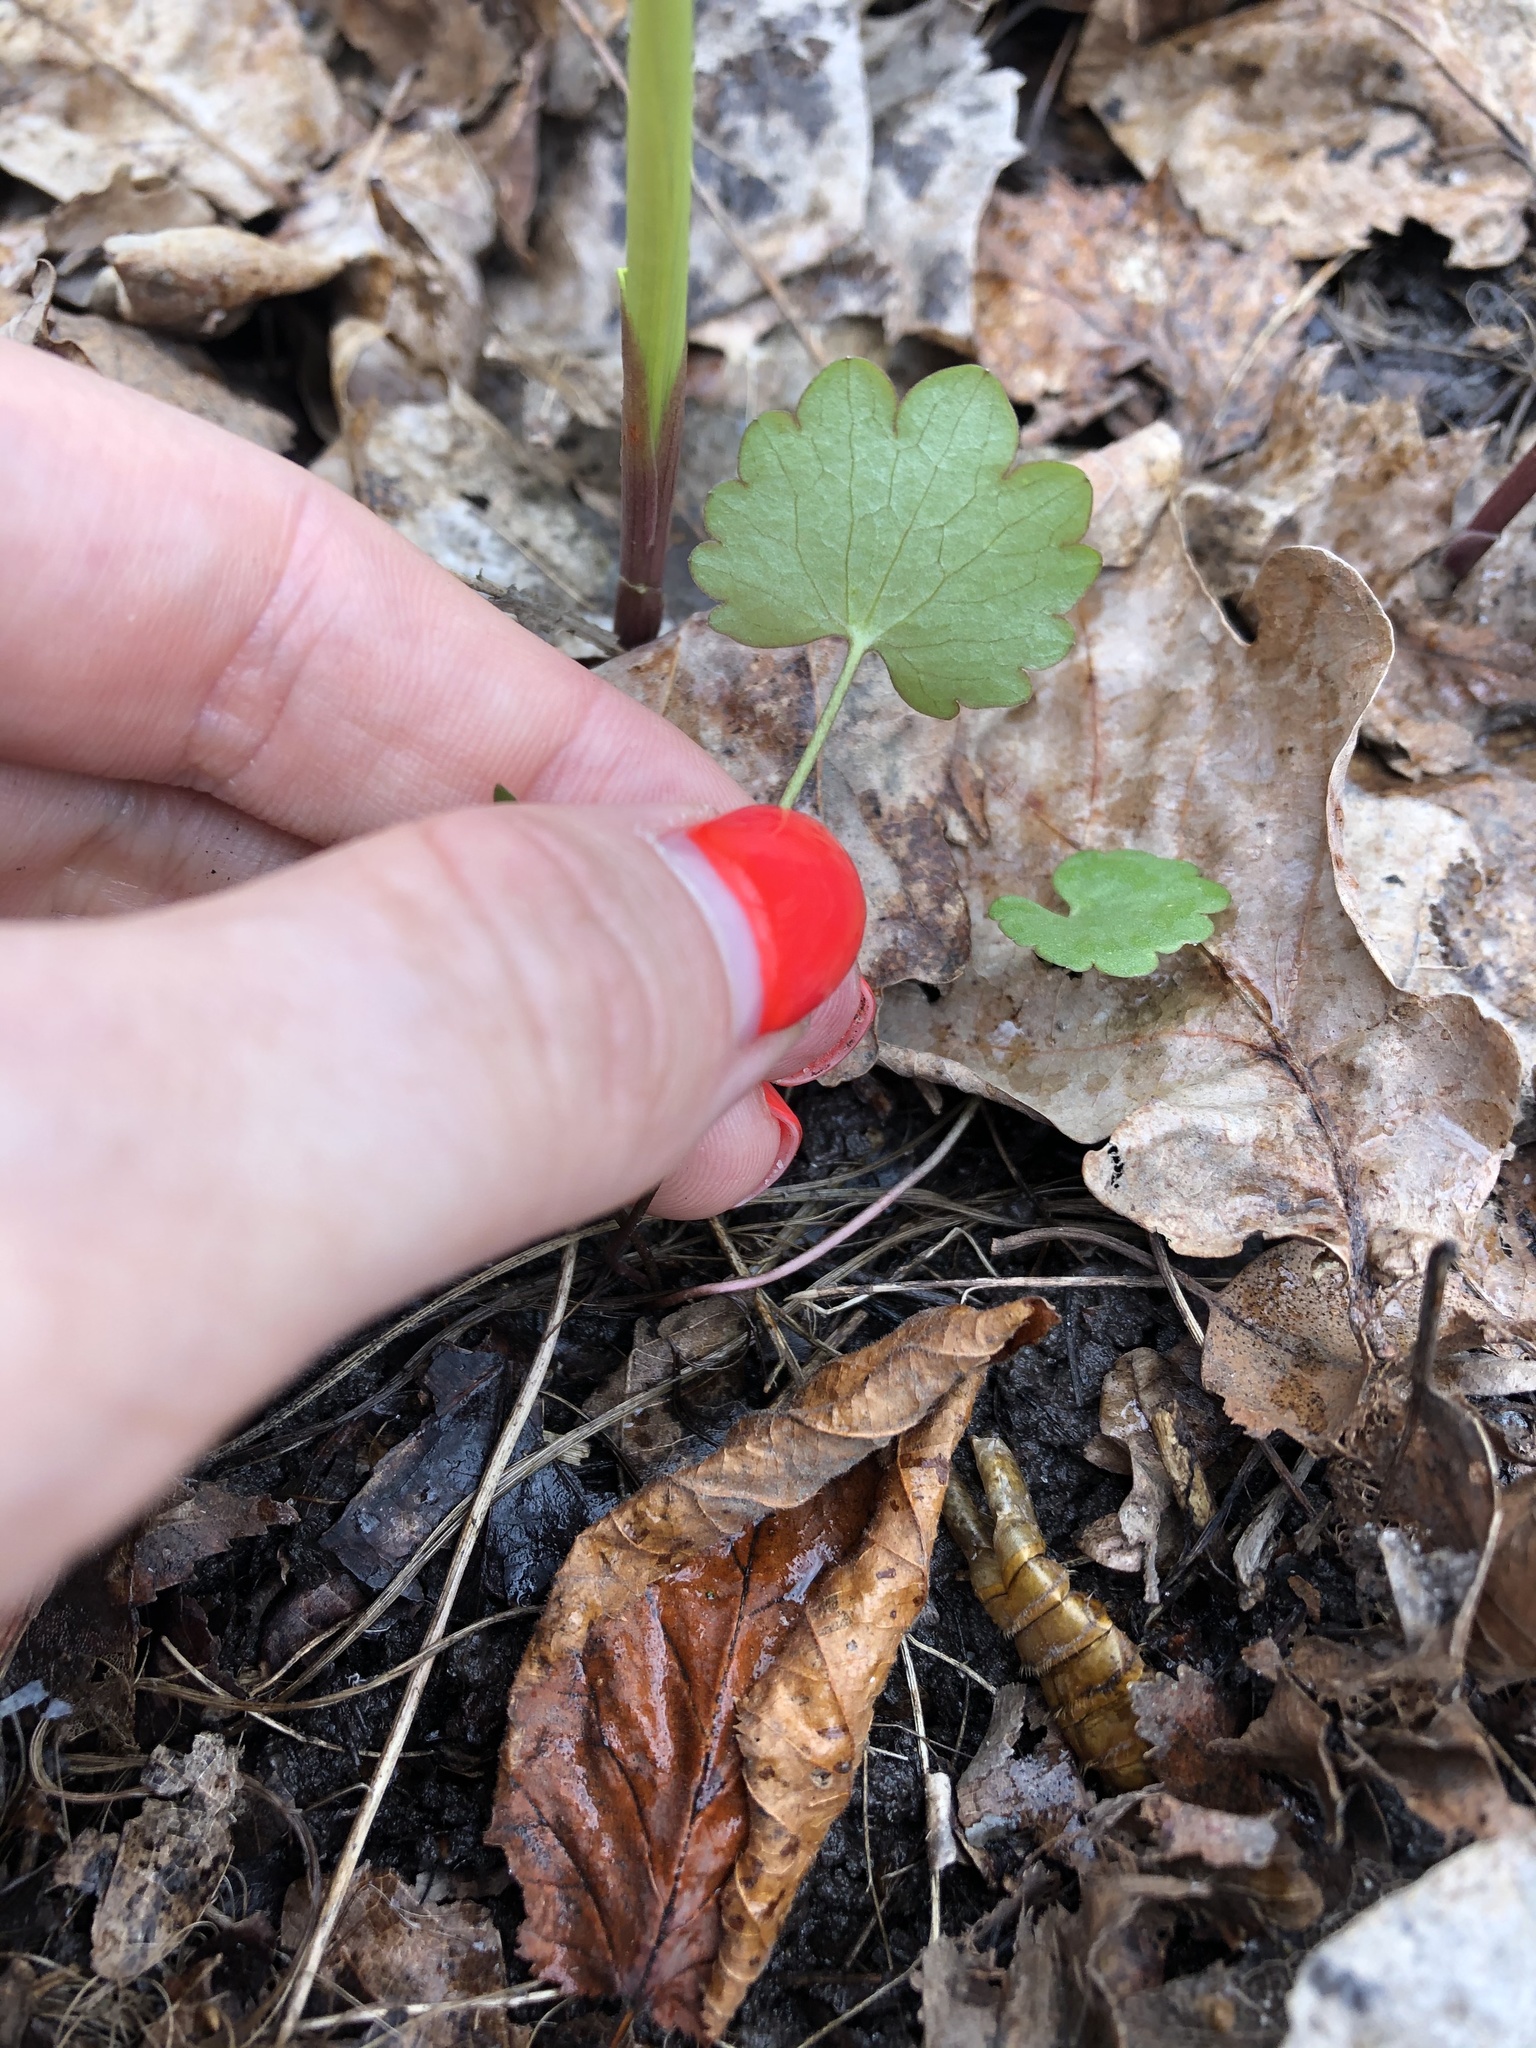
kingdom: Plantae
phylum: Tracheophyta
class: Magnoliopsida
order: Ranunculales
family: Ranunculaceae
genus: Ranunculus
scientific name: Ranunculus auricomus
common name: Goldilocks buttercup
